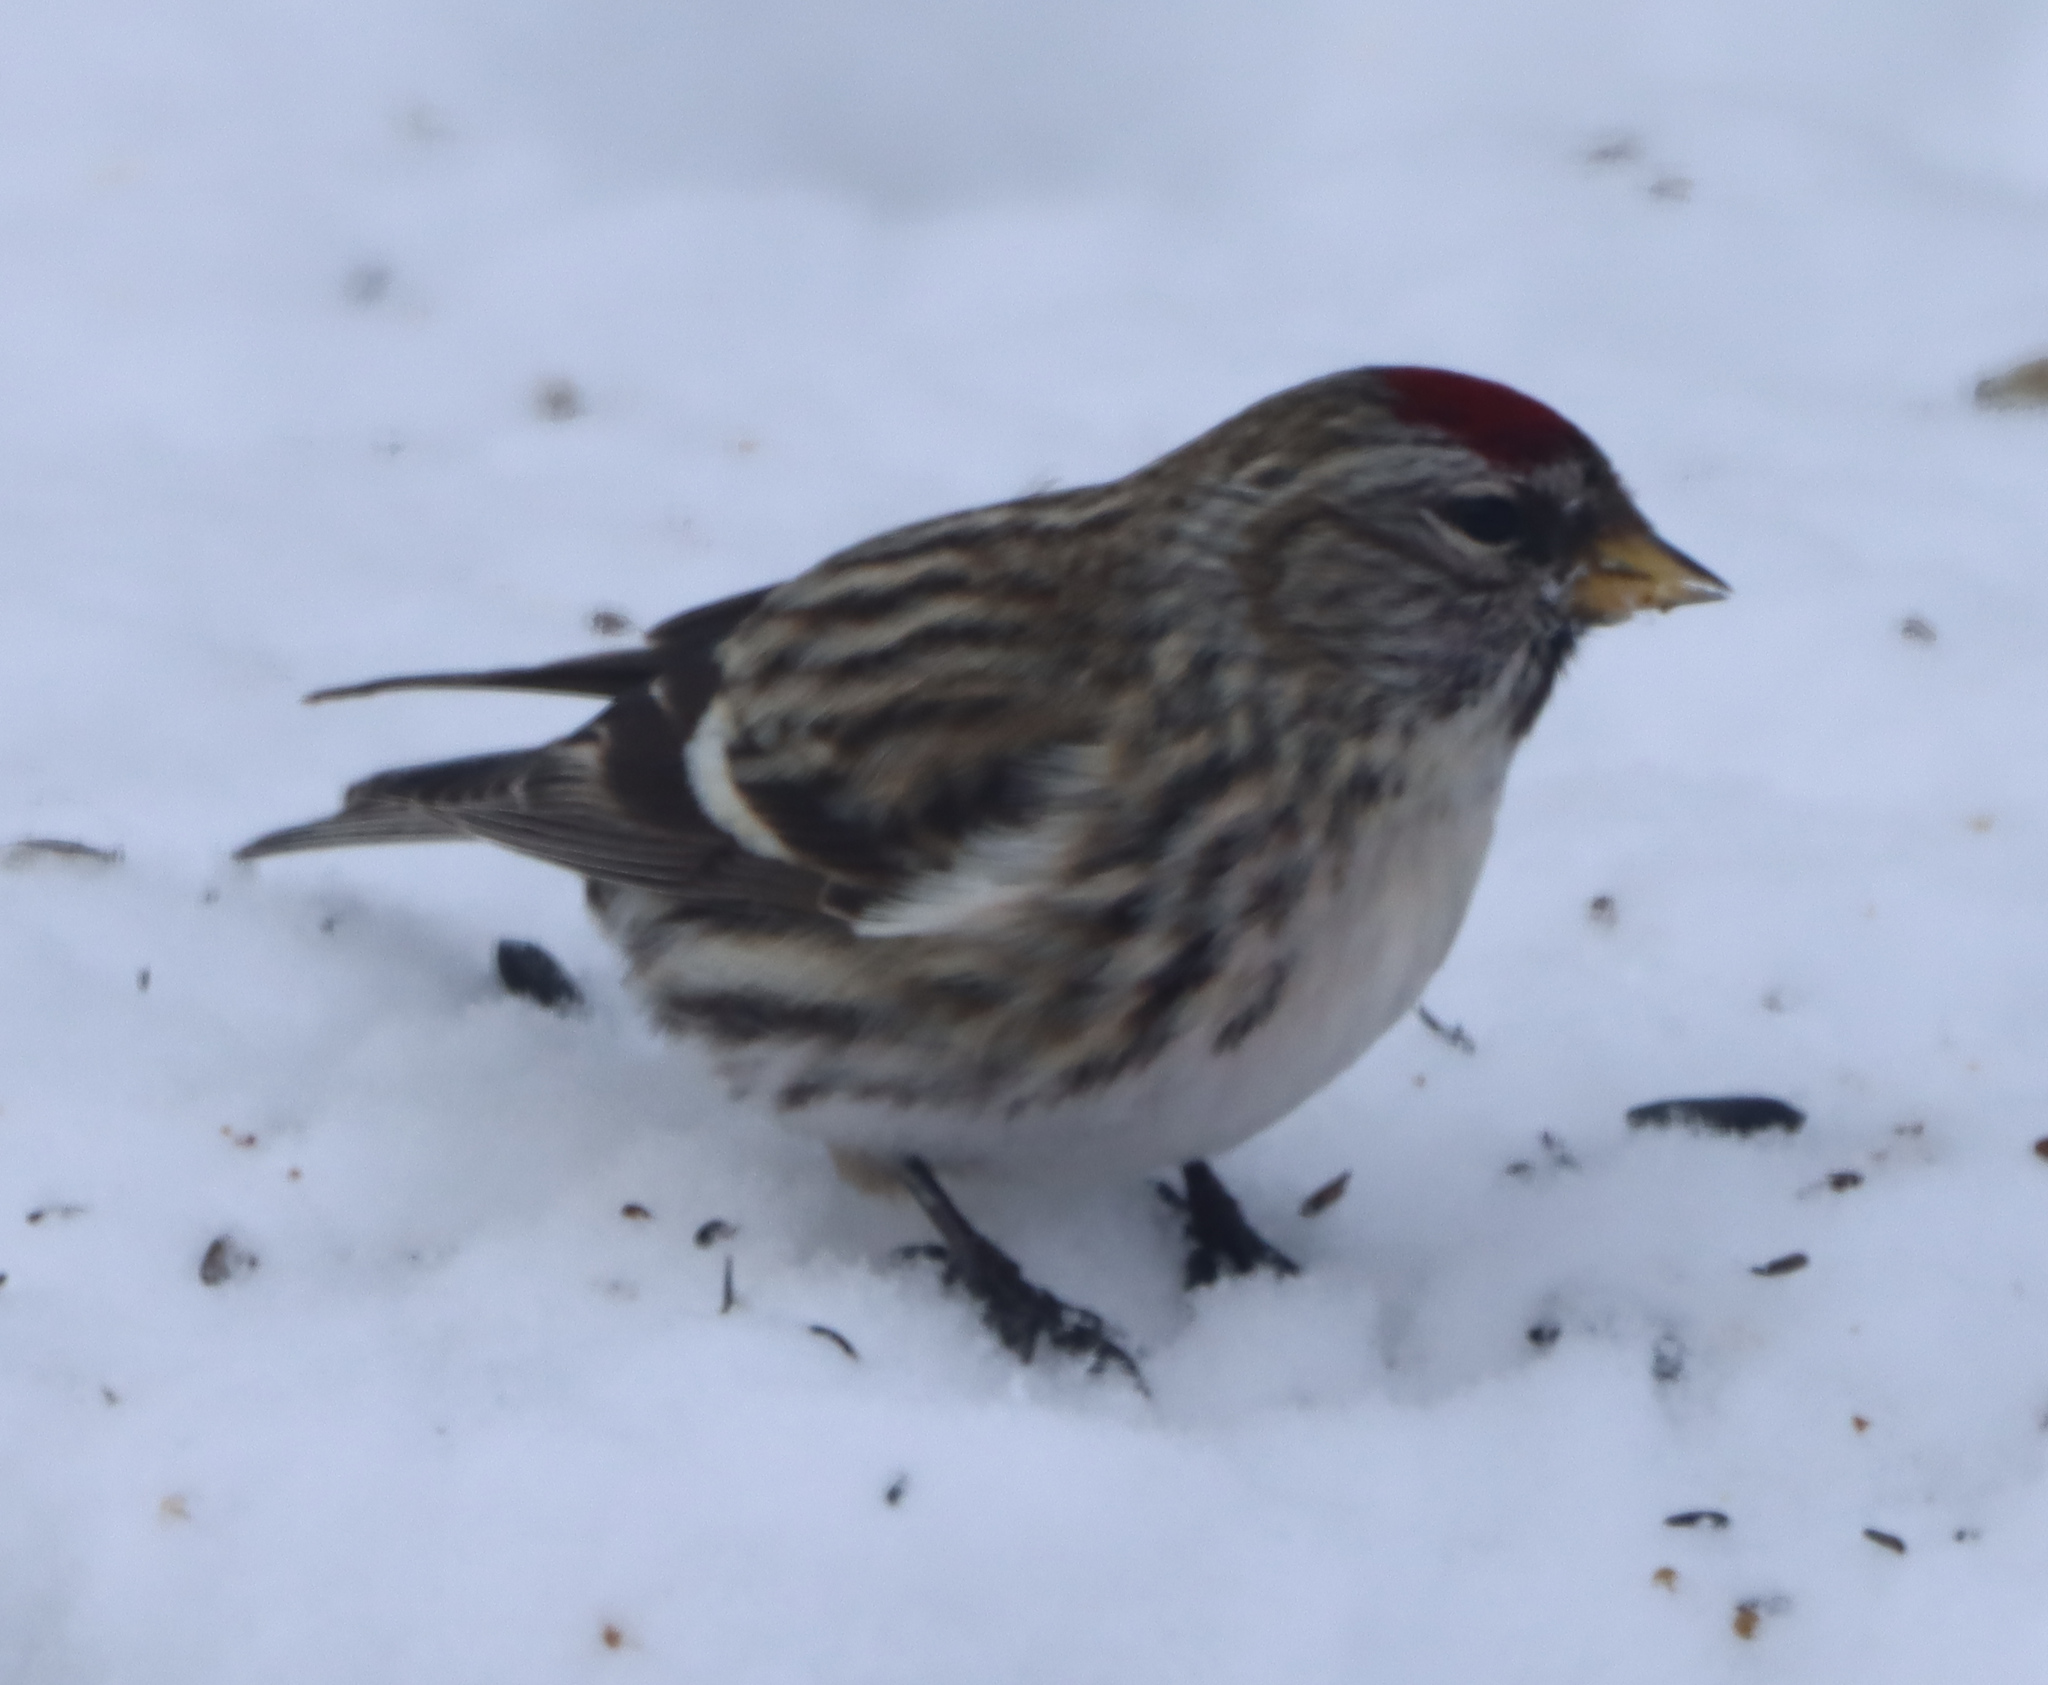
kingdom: Animalia
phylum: Chordata
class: Aves
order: Passeriformes
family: Fringillidae
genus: Acanthis
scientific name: Acanthis flammea
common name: Common redpoll
